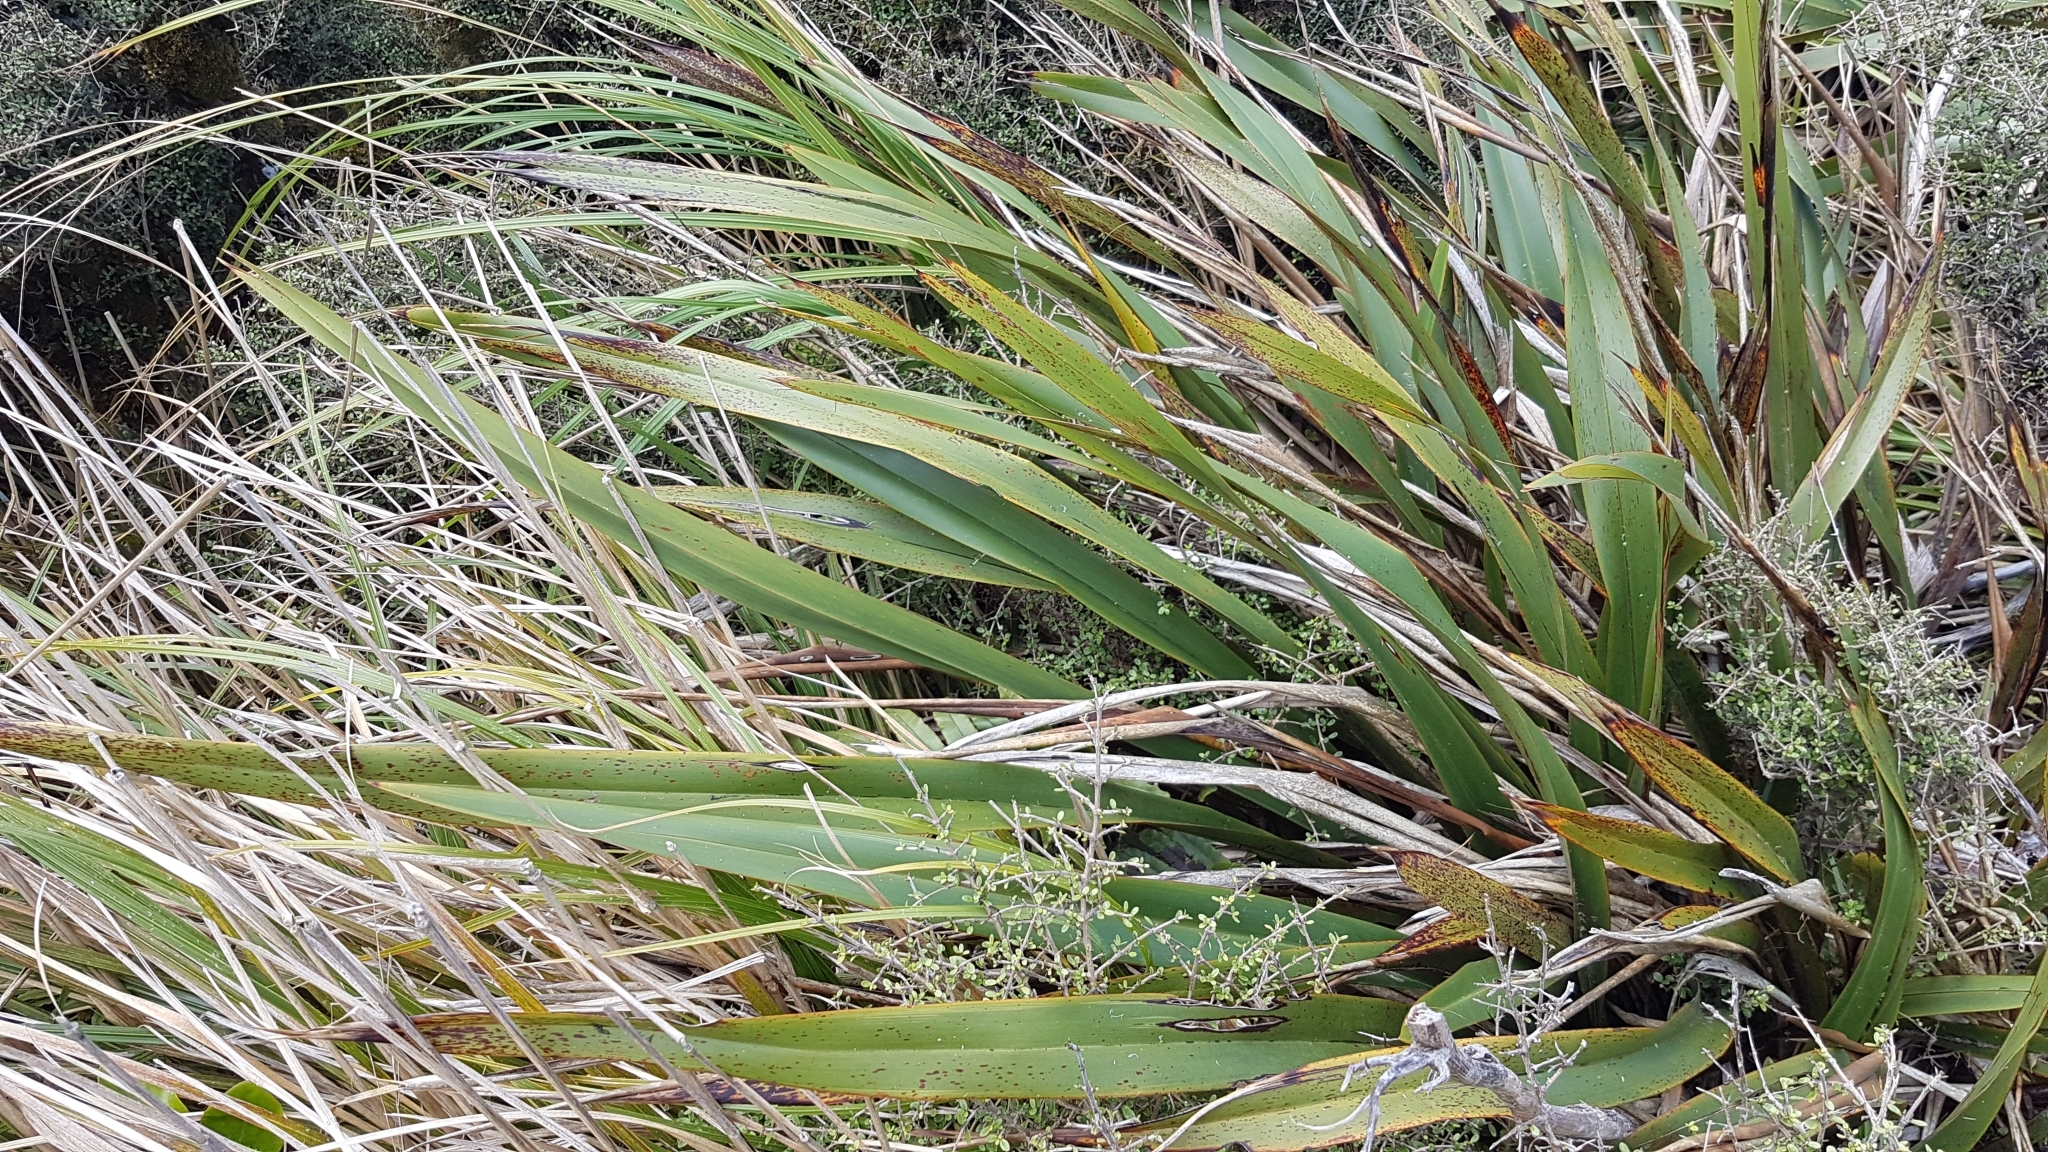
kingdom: Animalia
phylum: Arthropoda
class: Insecta
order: Lepidoptera
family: Lycaenidae
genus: Lycaena
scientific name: Lycaena salustius
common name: North island coastal copper
